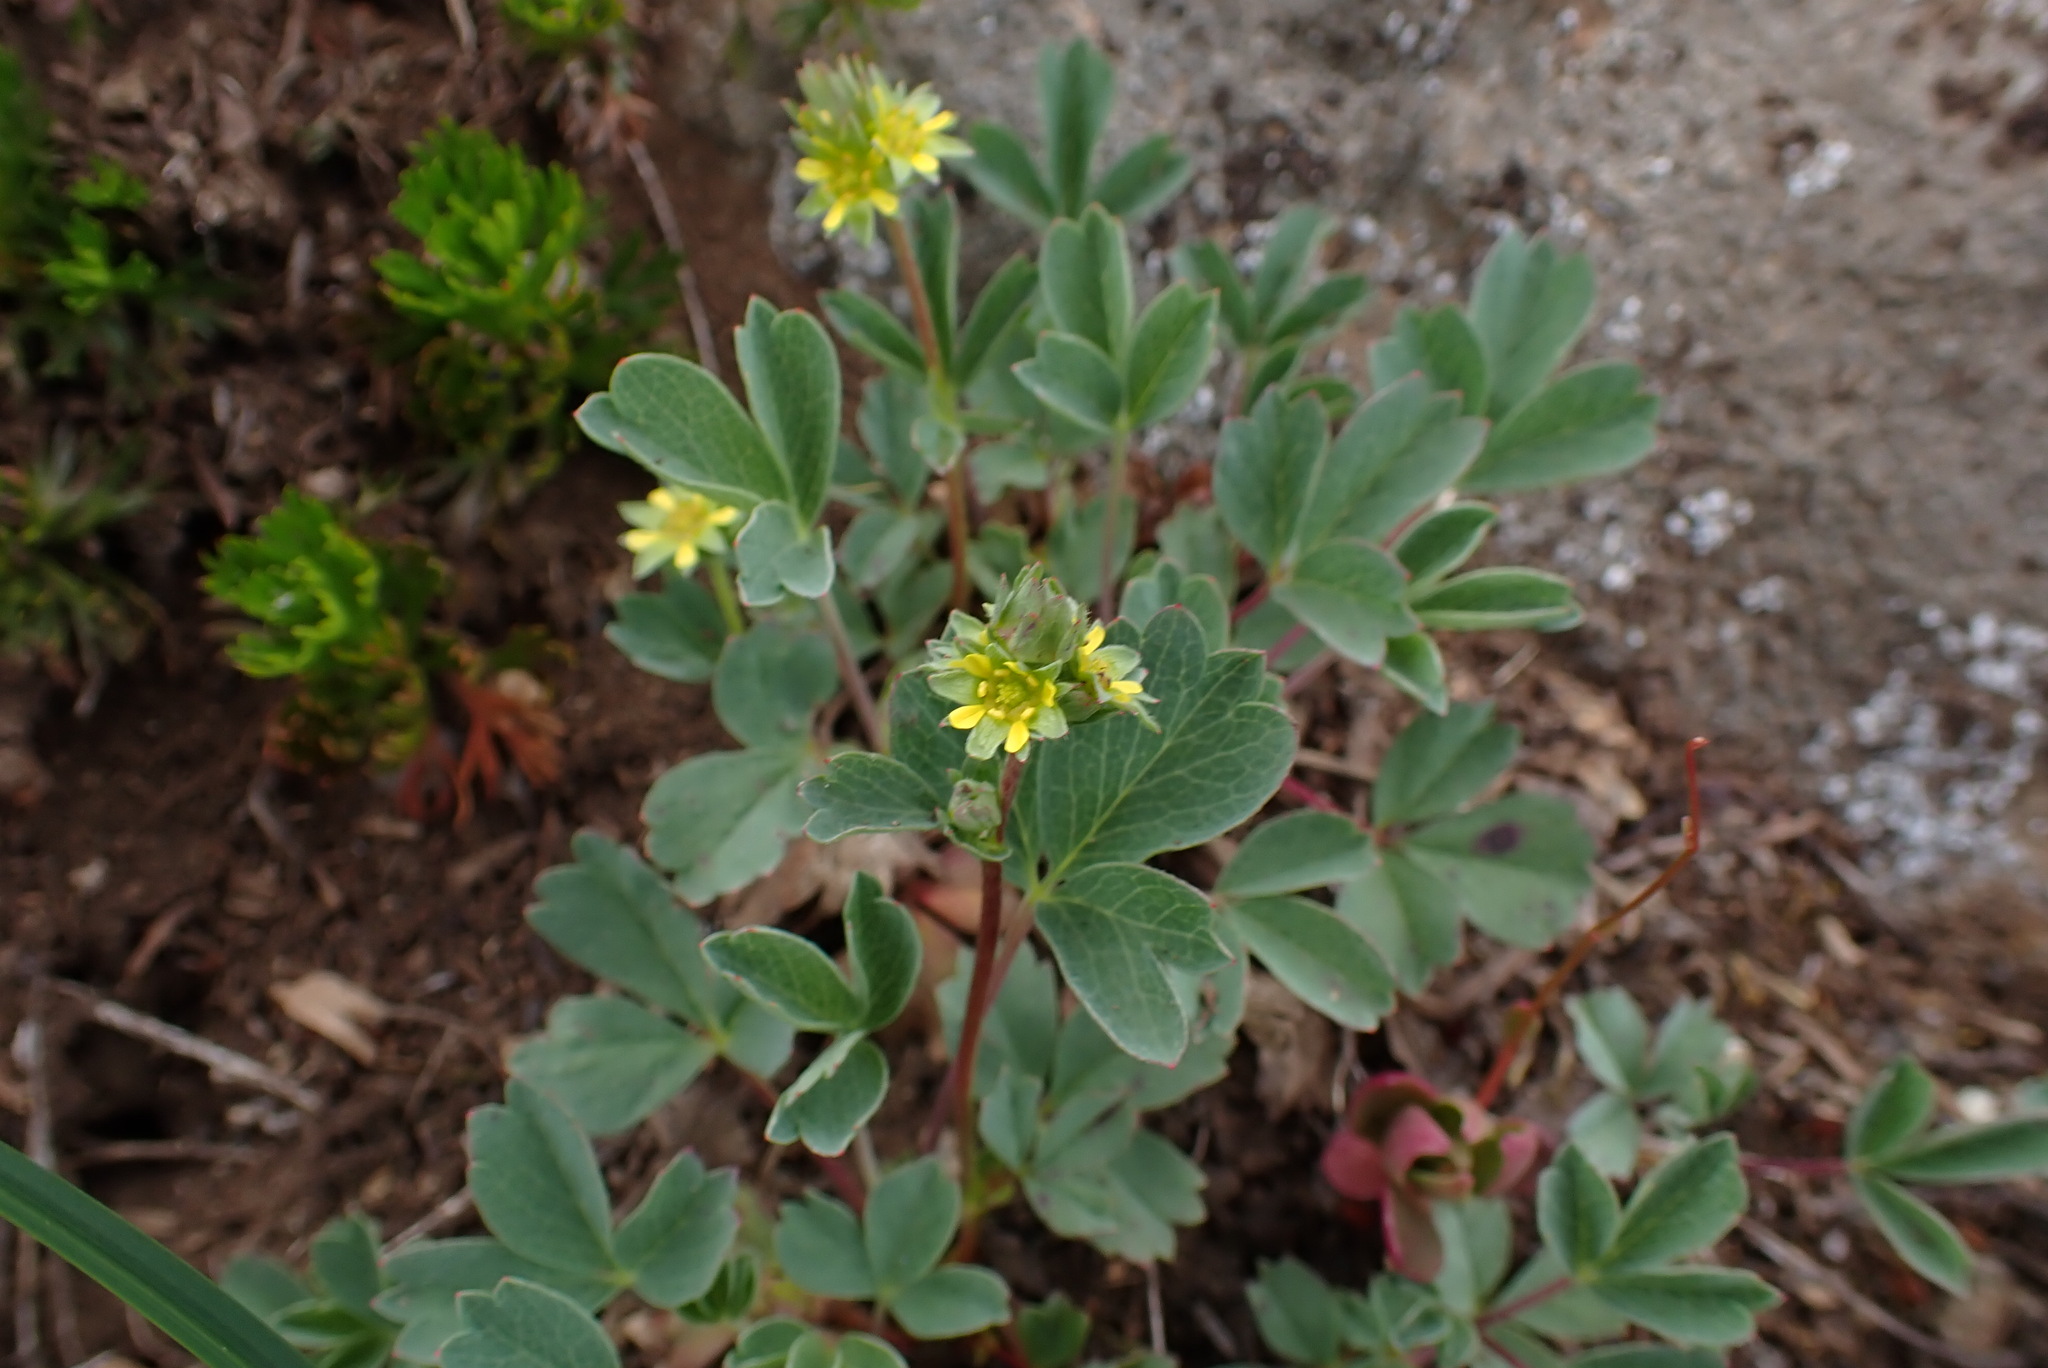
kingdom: Plantae
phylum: Tracheophyta
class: Magnoliopsida
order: Rosales
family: Rosaceae
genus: Sibbaldia
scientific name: Sibbaldia procumbens
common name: Creeping sibbaldia
